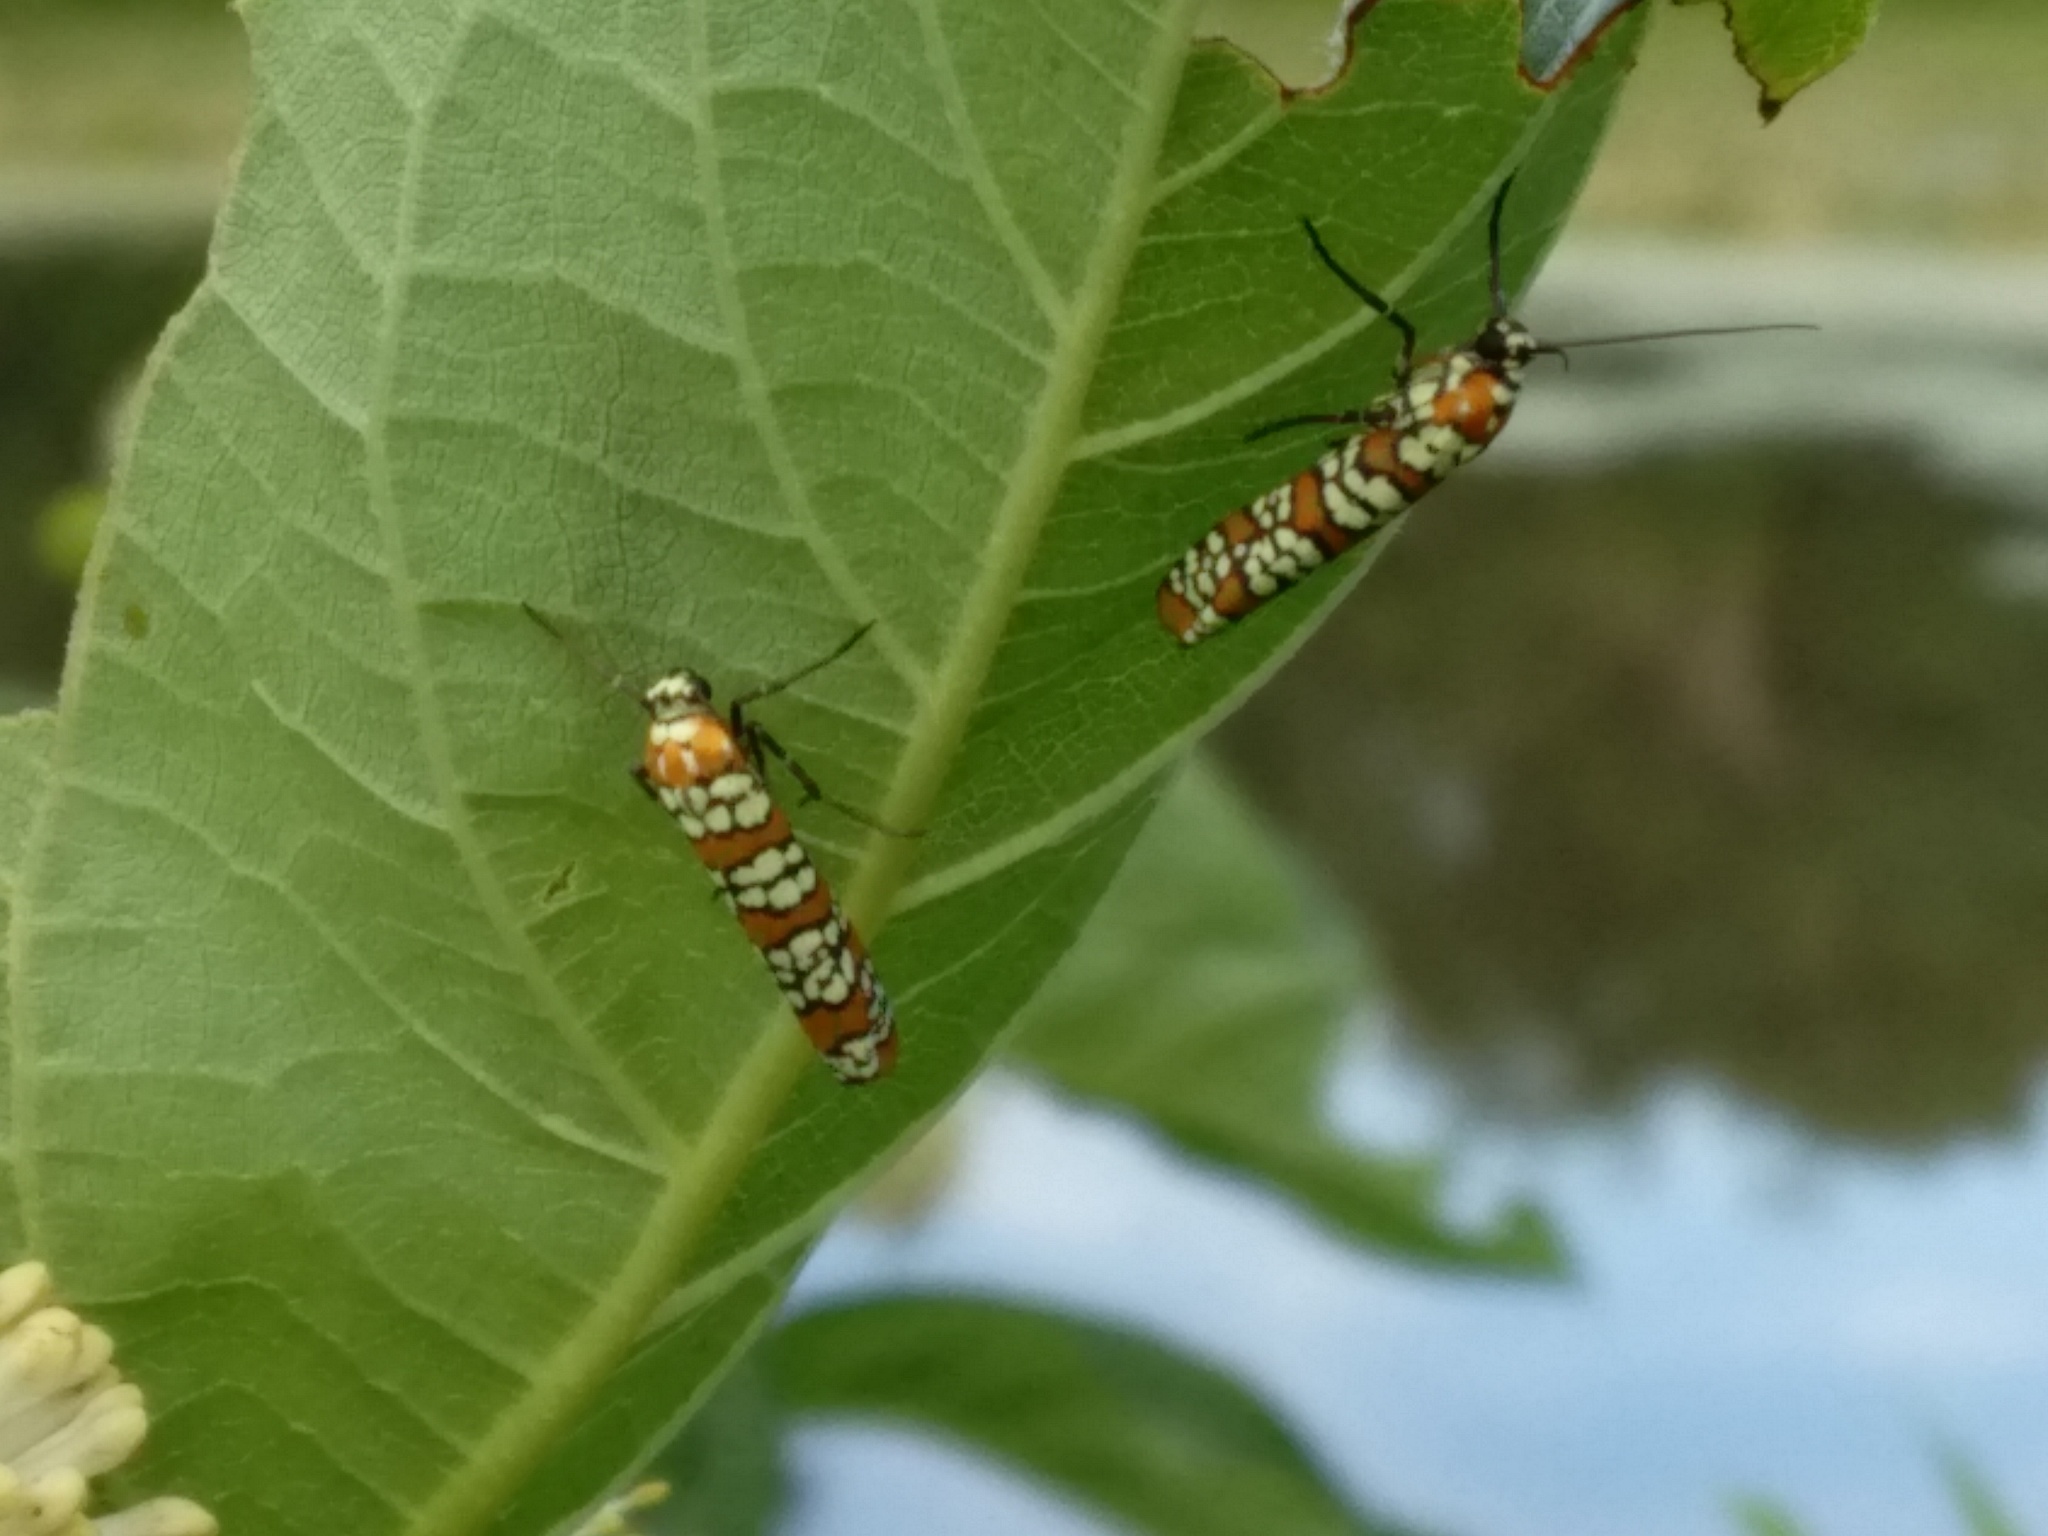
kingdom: Animalia
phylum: Arthropoda
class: Insecta
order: Lepidoptera
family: Attevidae
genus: Atteva
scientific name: Atteva punctella
